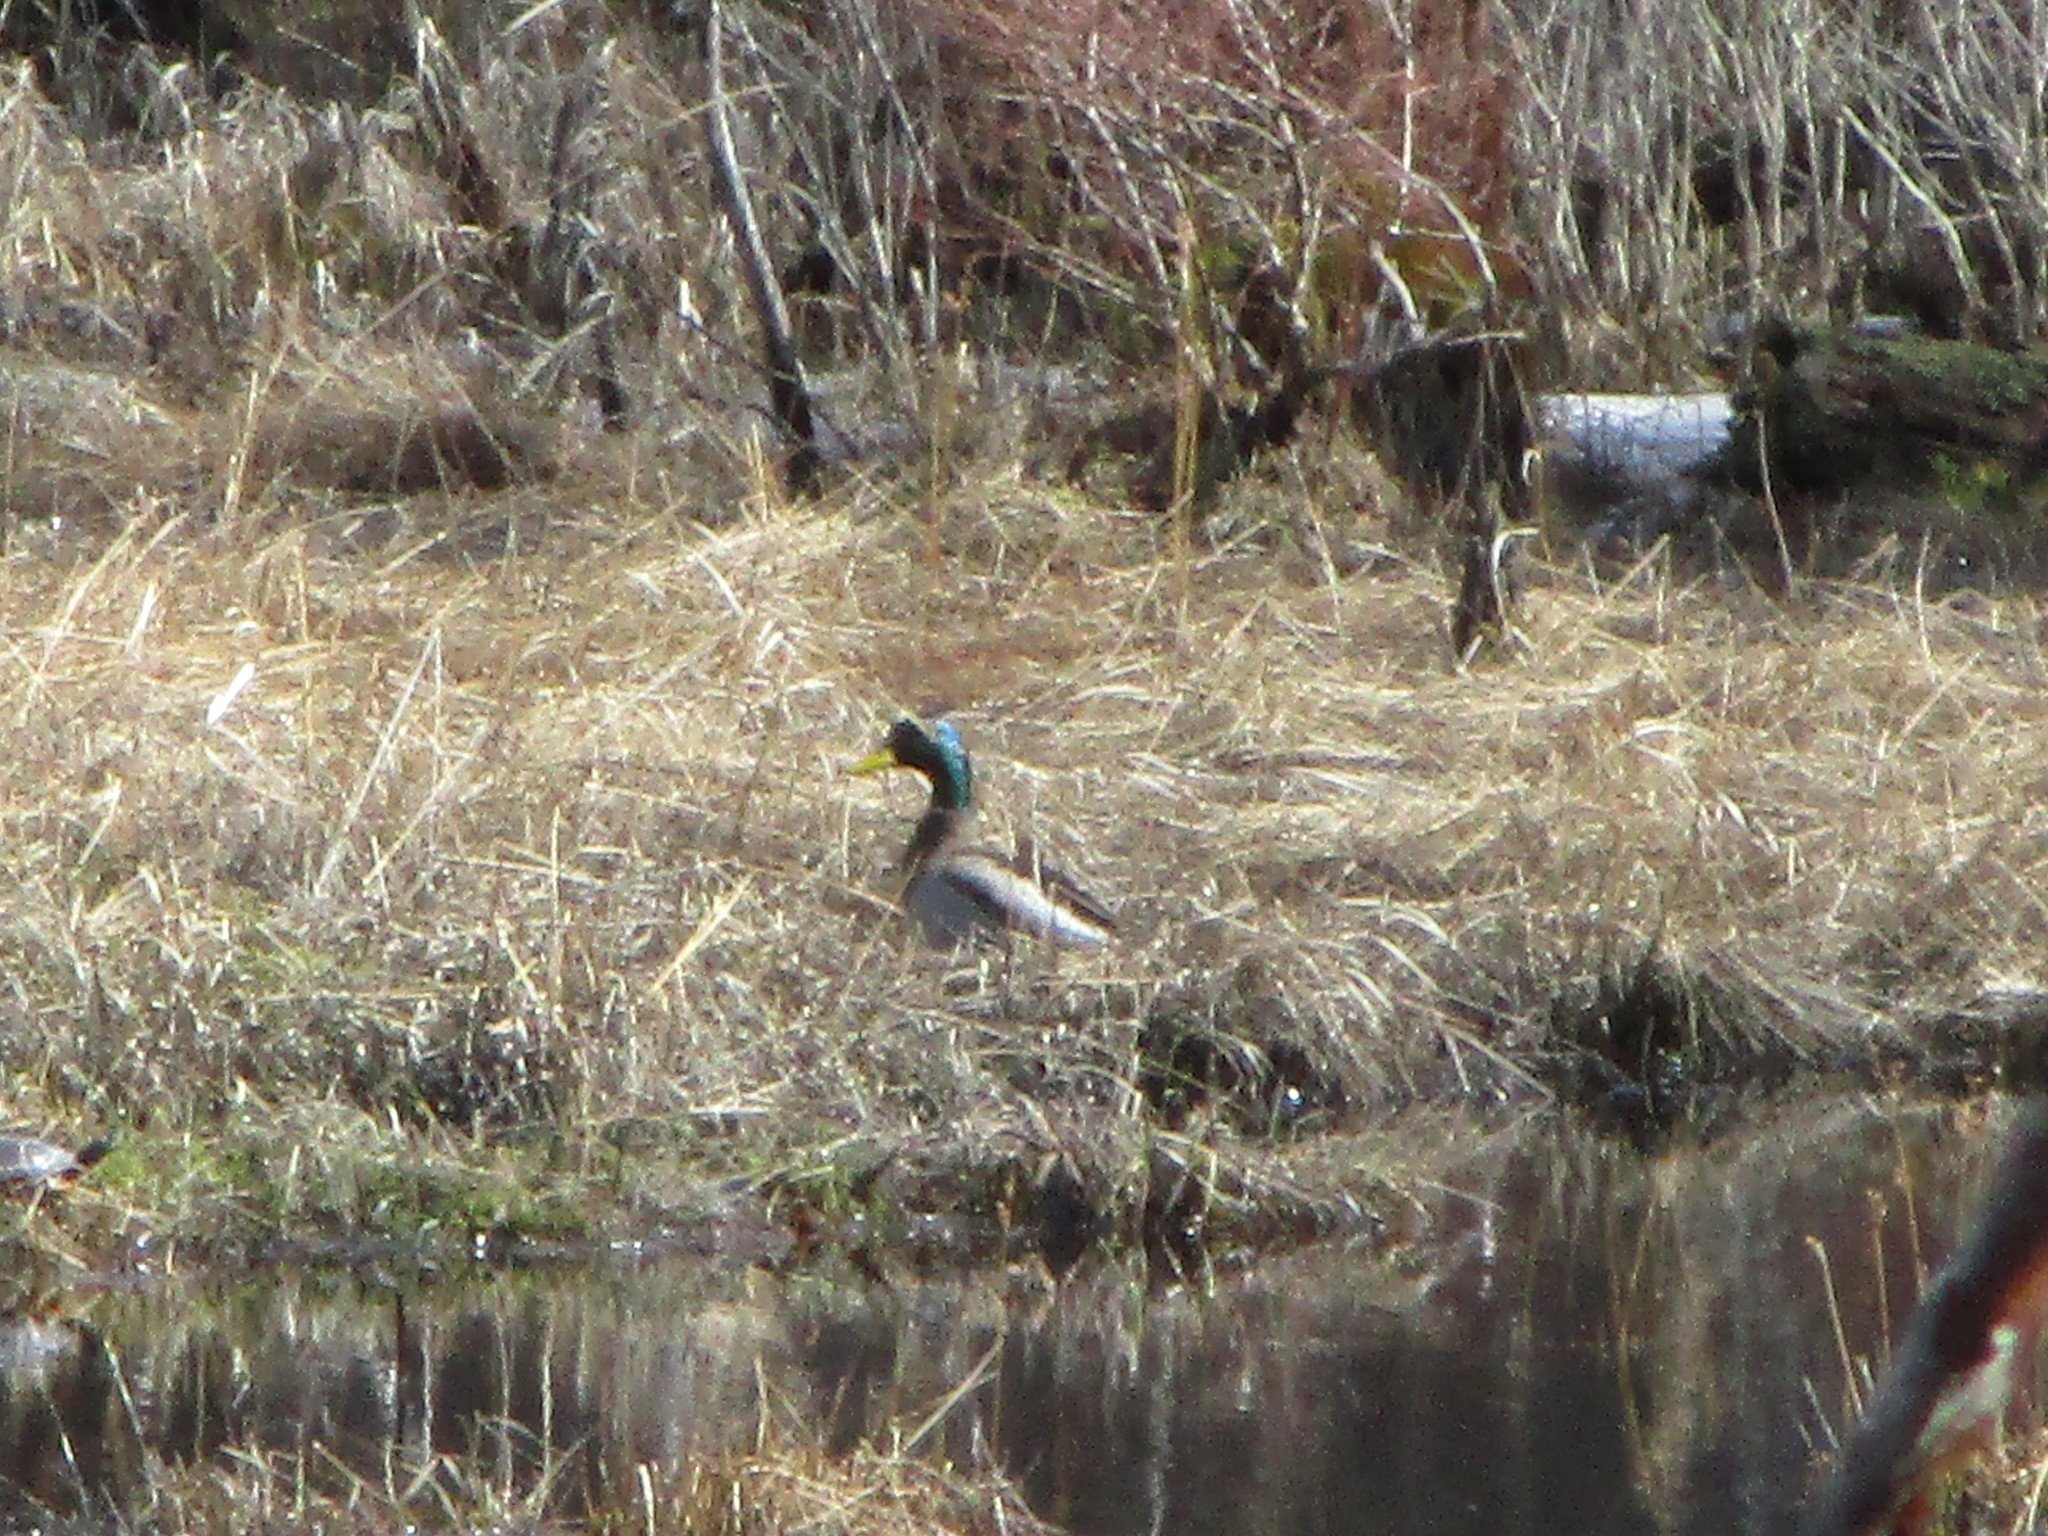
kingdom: Animalia
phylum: Chordata
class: Aves
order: Anseriformes
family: Anatidae
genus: Anas
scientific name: Anas platyrhynchos
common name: Mallard
